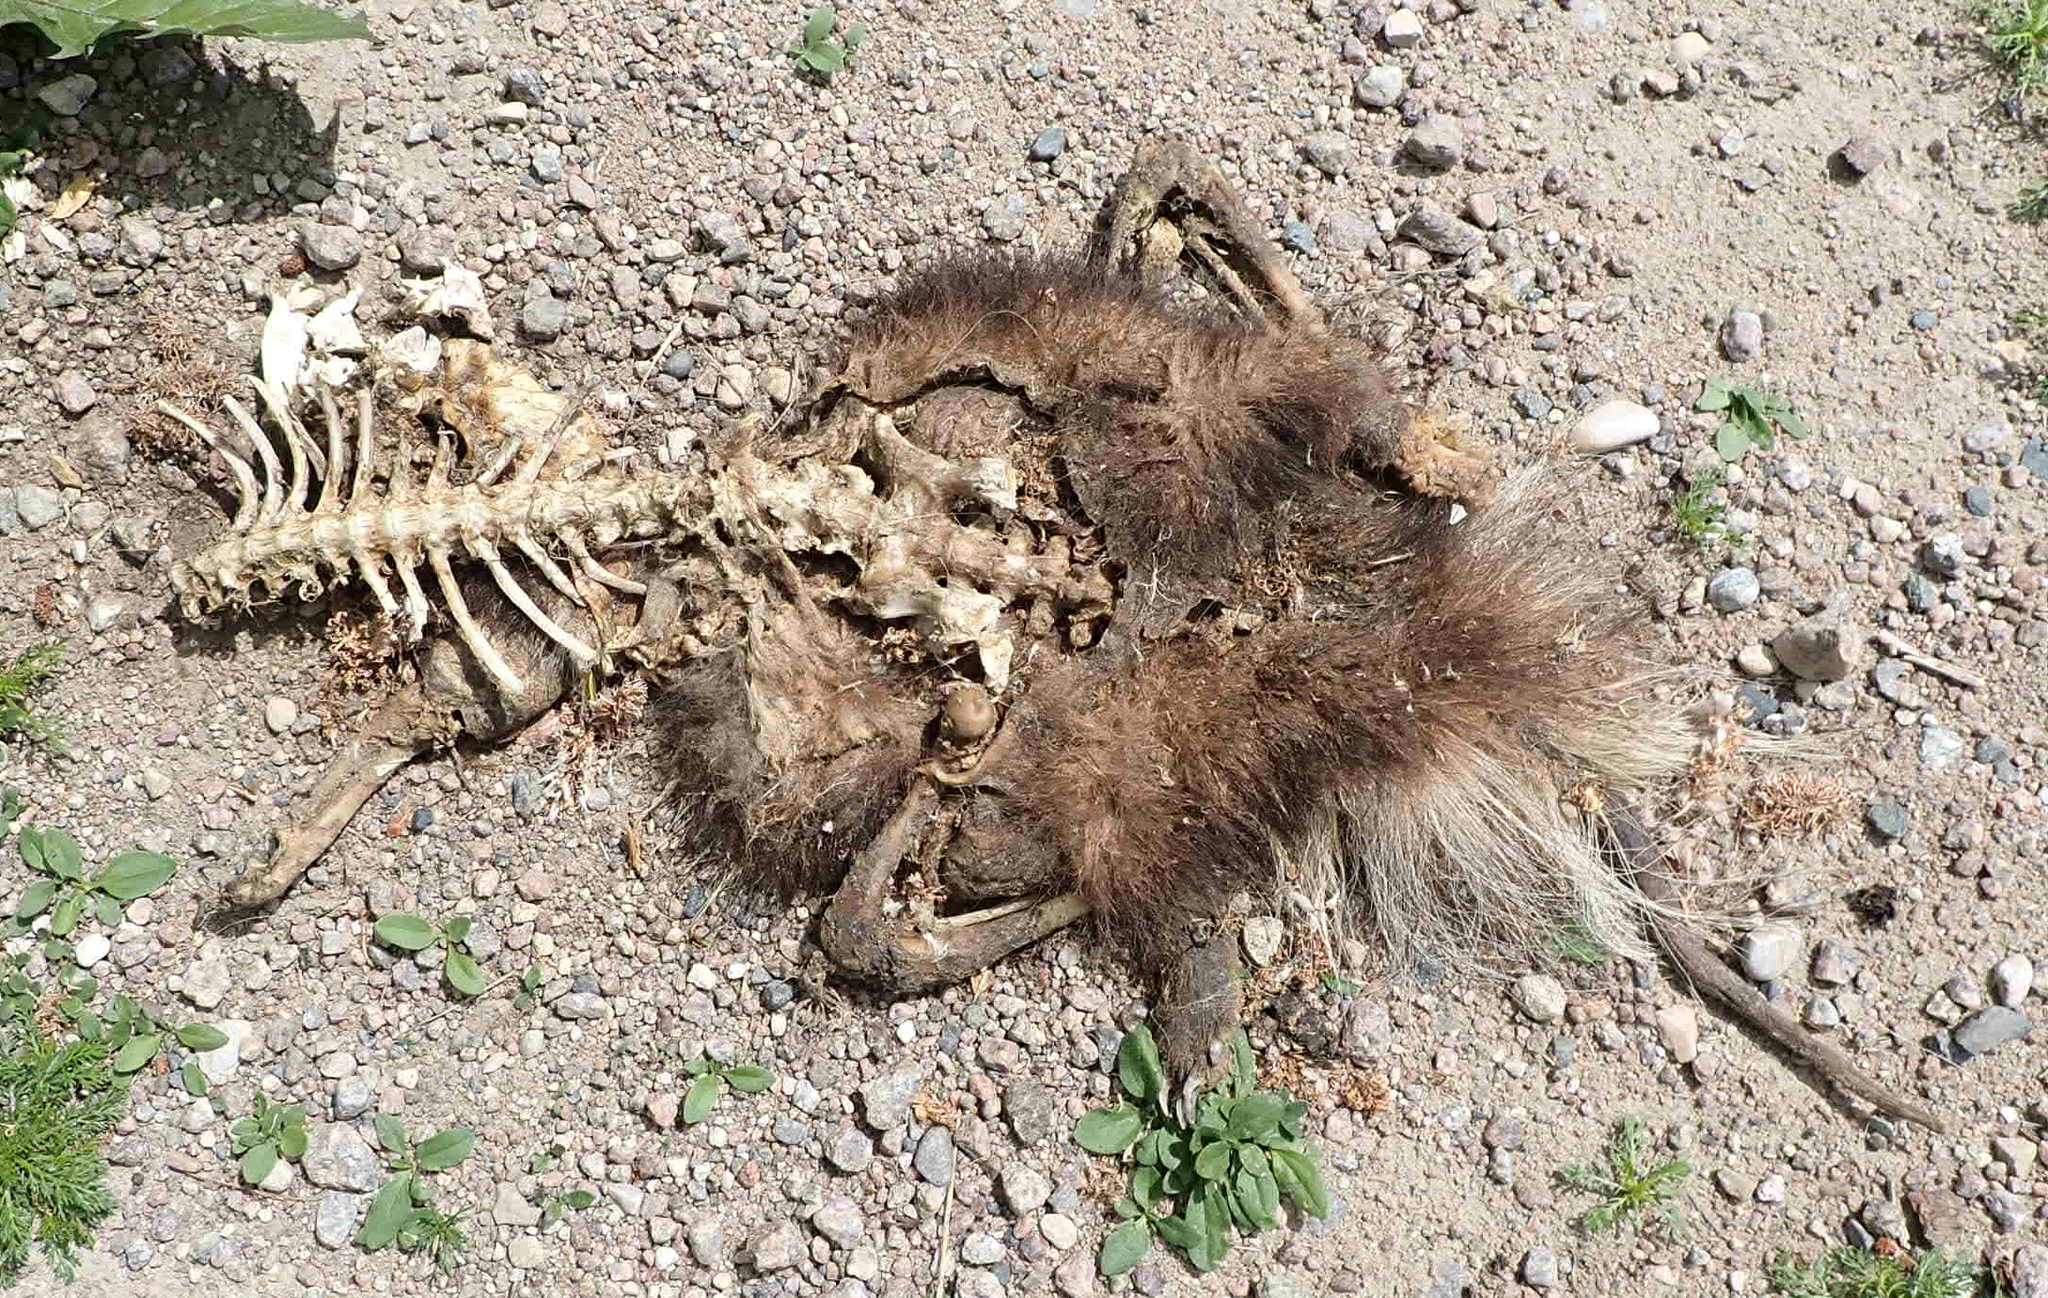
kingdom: Animalia
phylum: Chordata
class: Mammalia
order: Rodentia
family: Cricetidae
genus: Ondatra
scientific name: Ondatra zibethicus
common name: Muskrat
